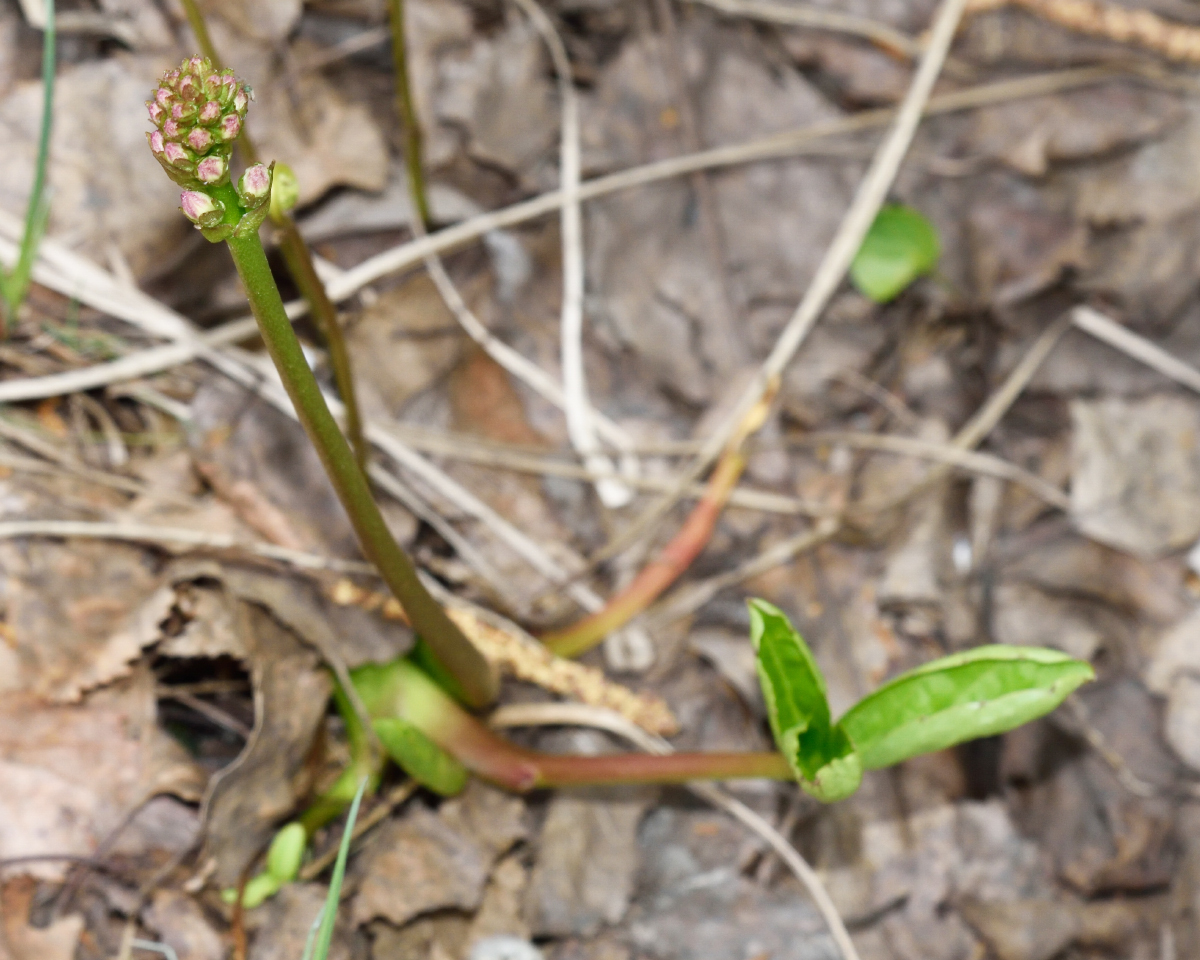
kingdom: Plantae
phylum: Tracheophyta
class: Magnoliopsida
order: Asterales
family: Menyanthaceae
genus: Menyanthes
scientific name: Menyanthes trifoliata
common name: Bogbean
